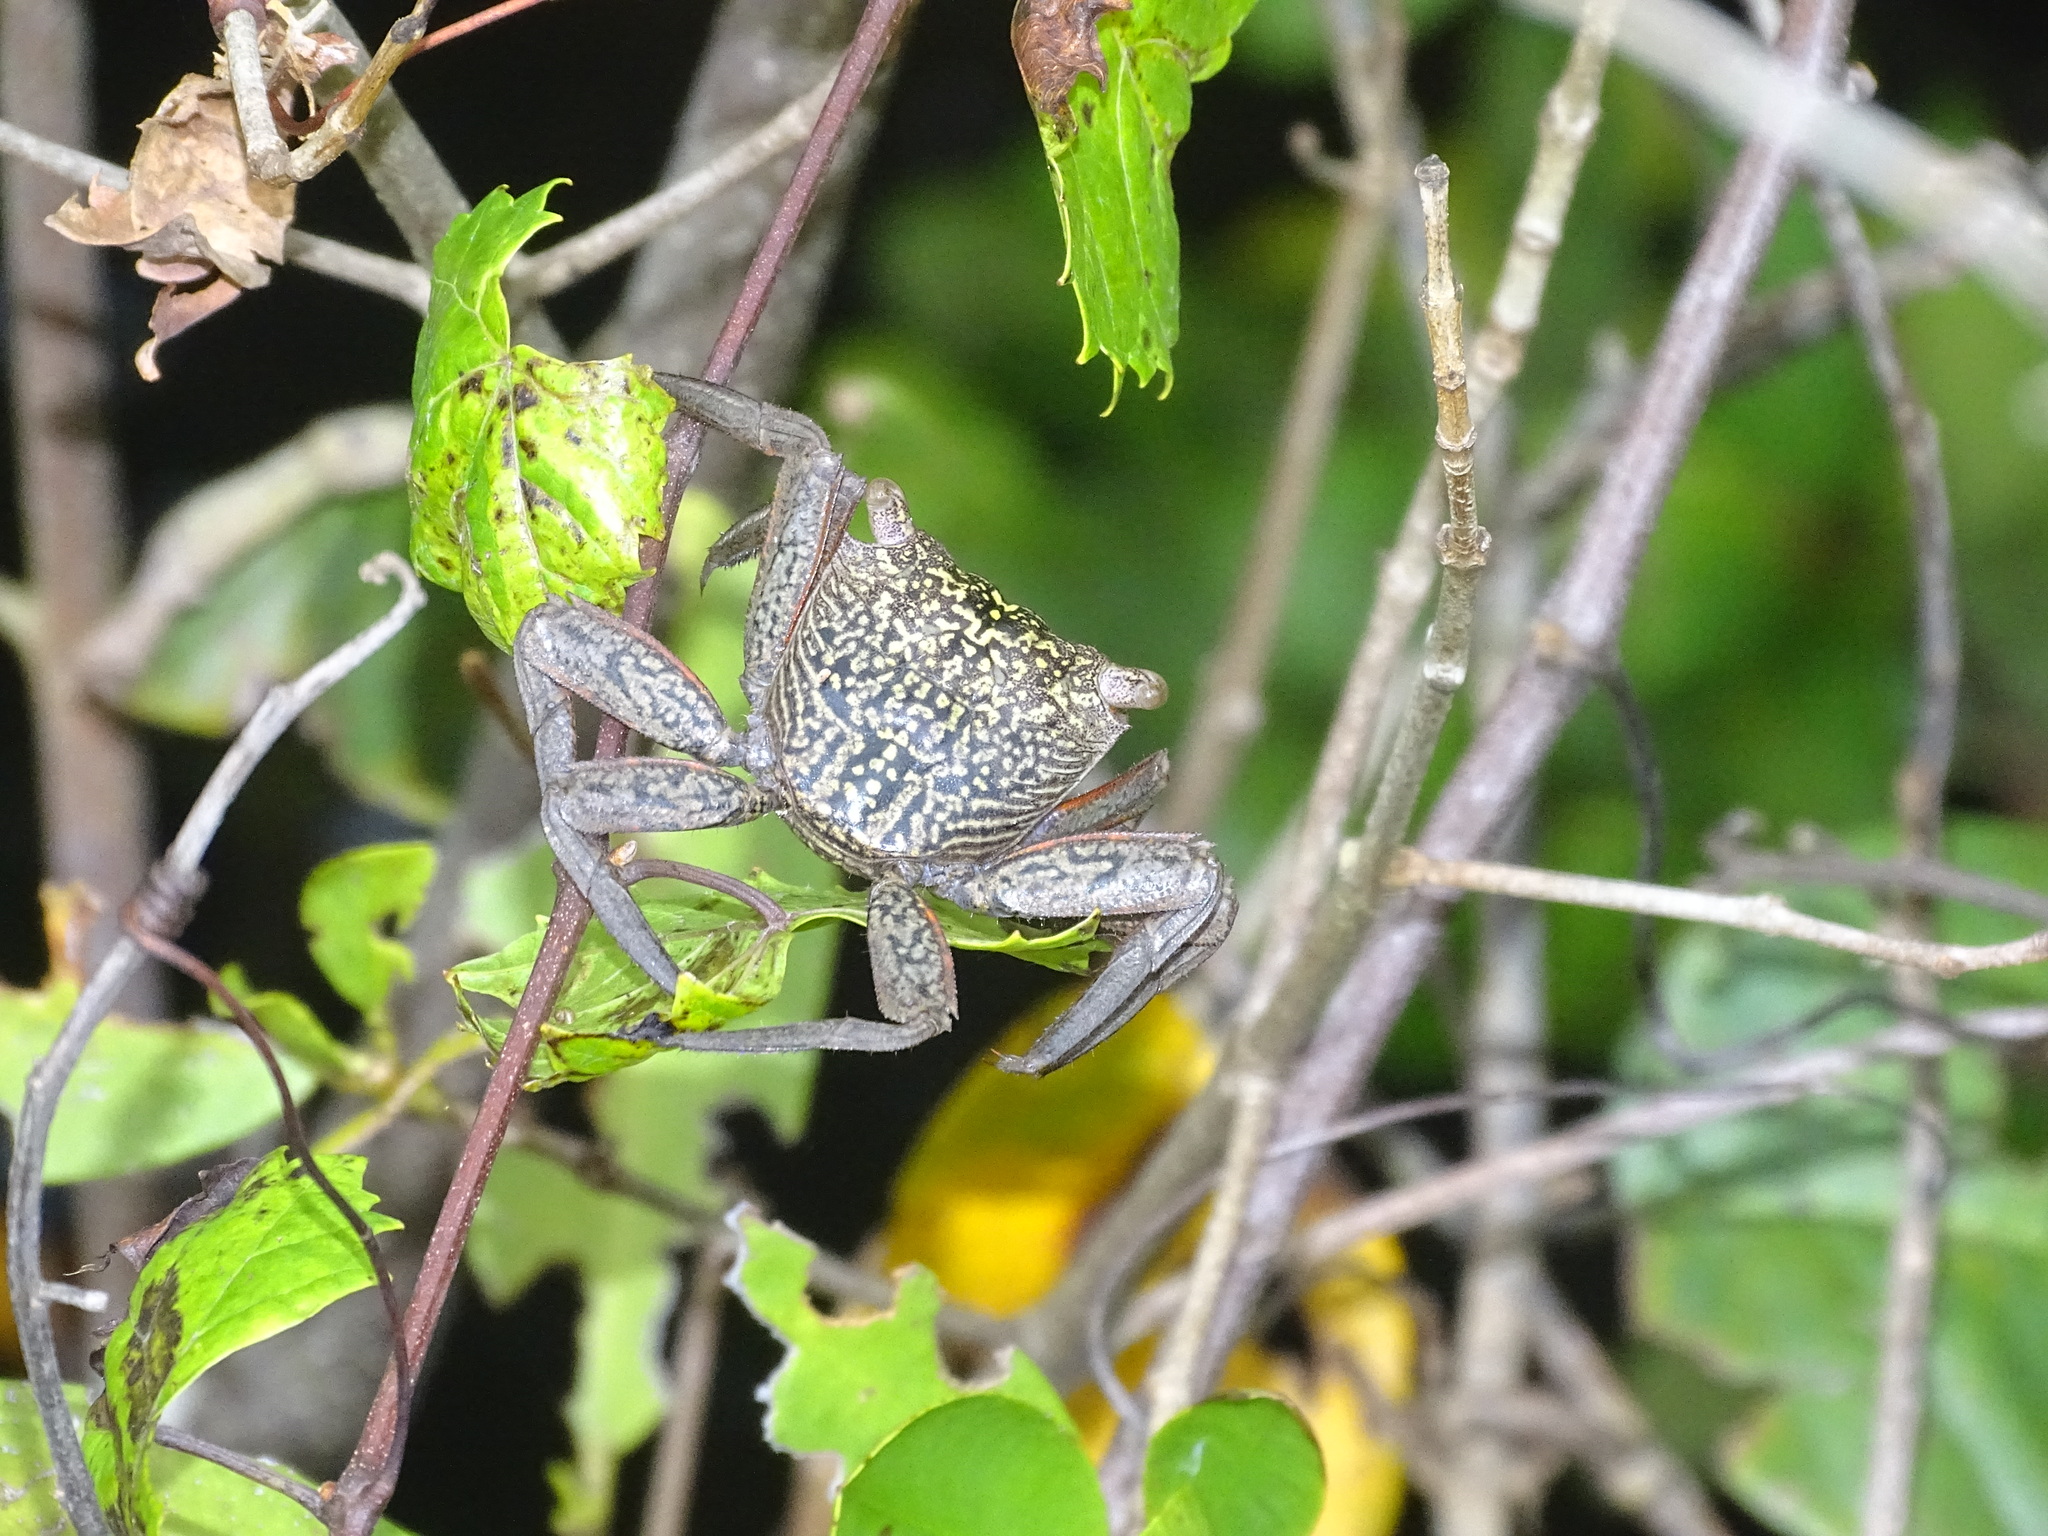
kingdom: Animalia
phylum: Arthropoda
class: Malacostraca
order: Decapoda
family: Sesarmidae
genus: Aratus
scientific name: Aratus pisonii
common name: Mangrove crab
